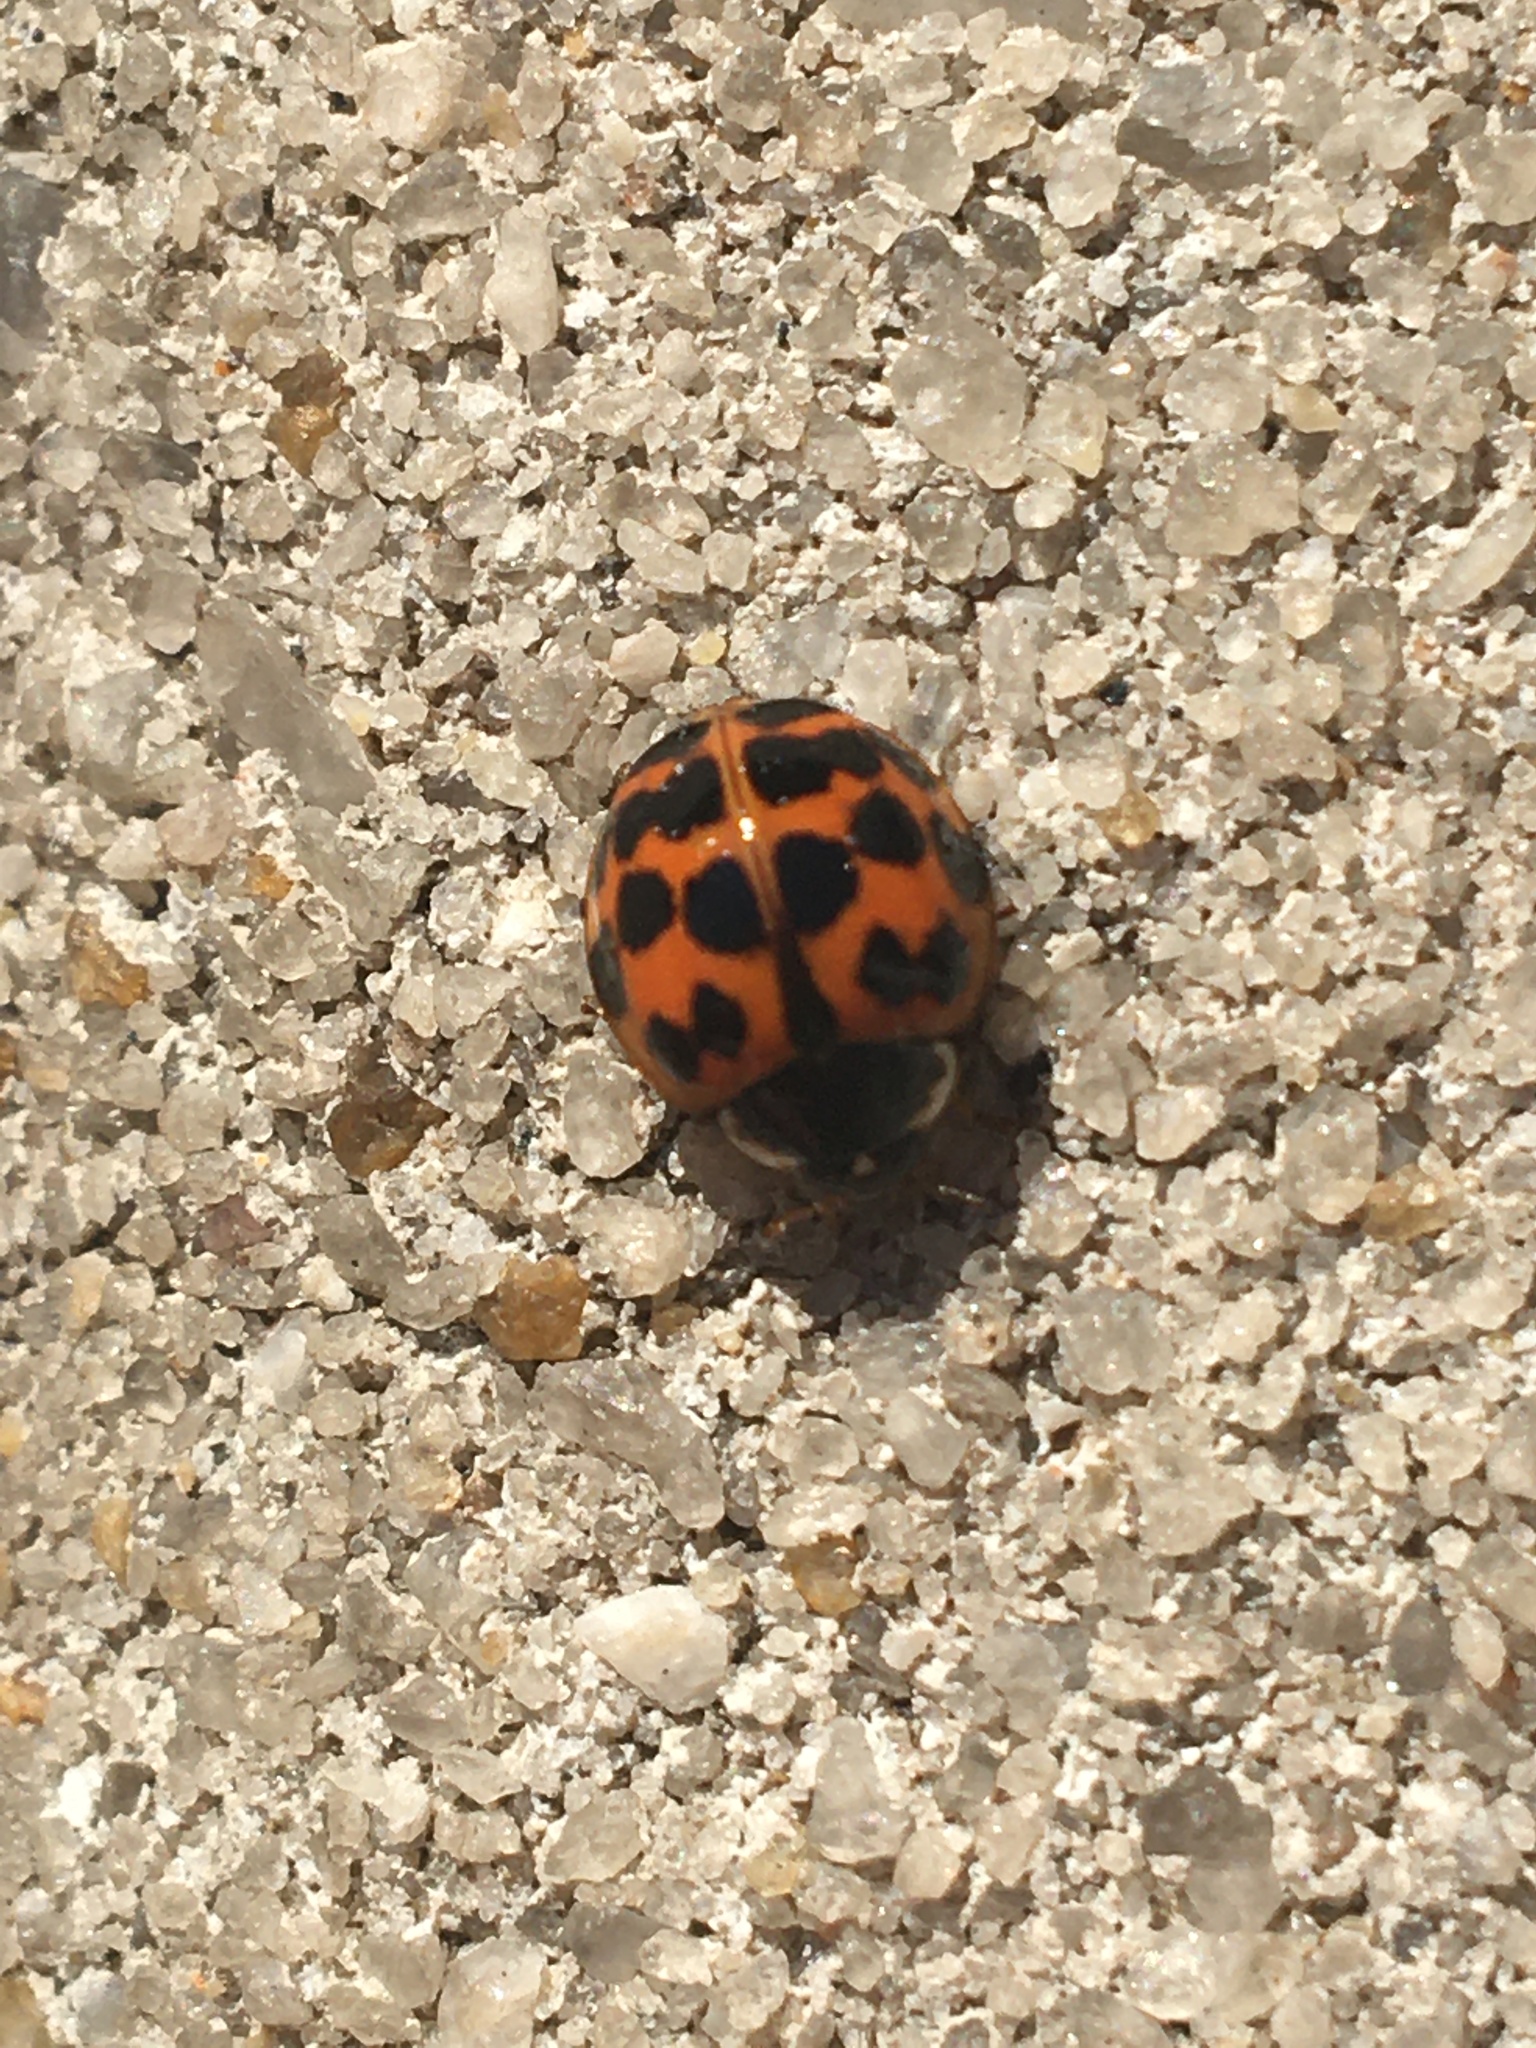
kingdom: Animalia
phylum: Arthropoda
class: Insecta
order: Coleoptera
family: Coccinellidae
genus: Harmonia
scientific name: Harmonia axyridis
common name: Harlequin ladybird
